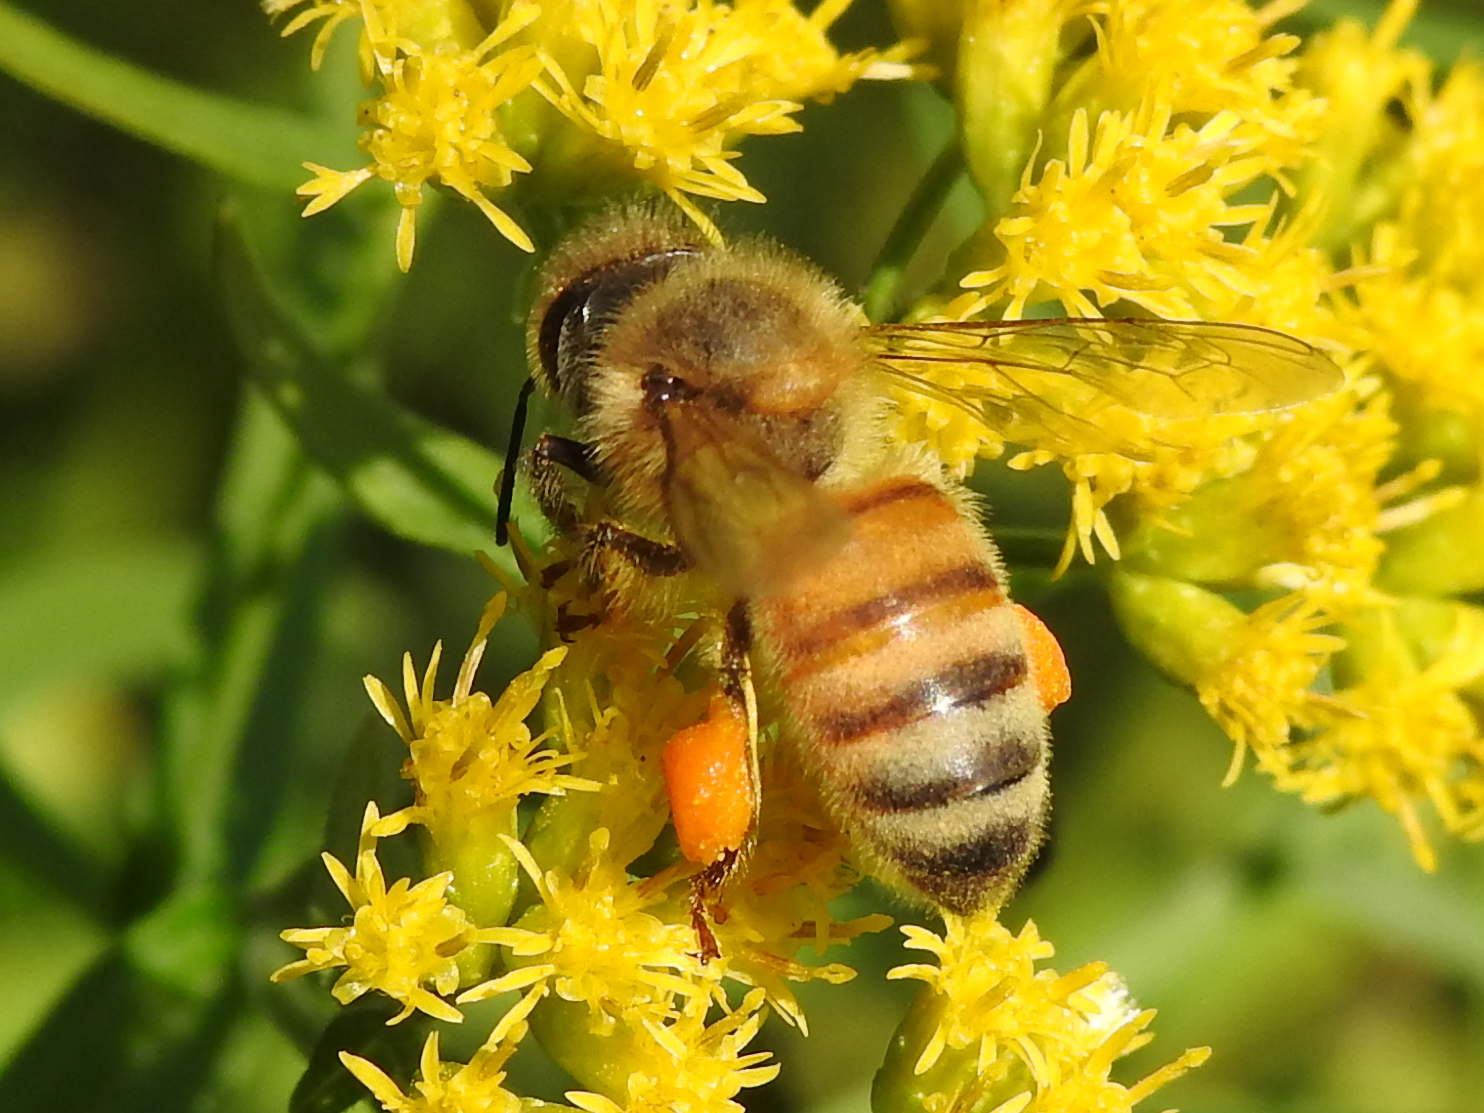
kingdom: Animalia
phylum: Arthropoda
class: Insecta
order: Hymenoptera
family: Apidae
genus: Apis
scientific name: Apis mellifera
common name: Honey bee
